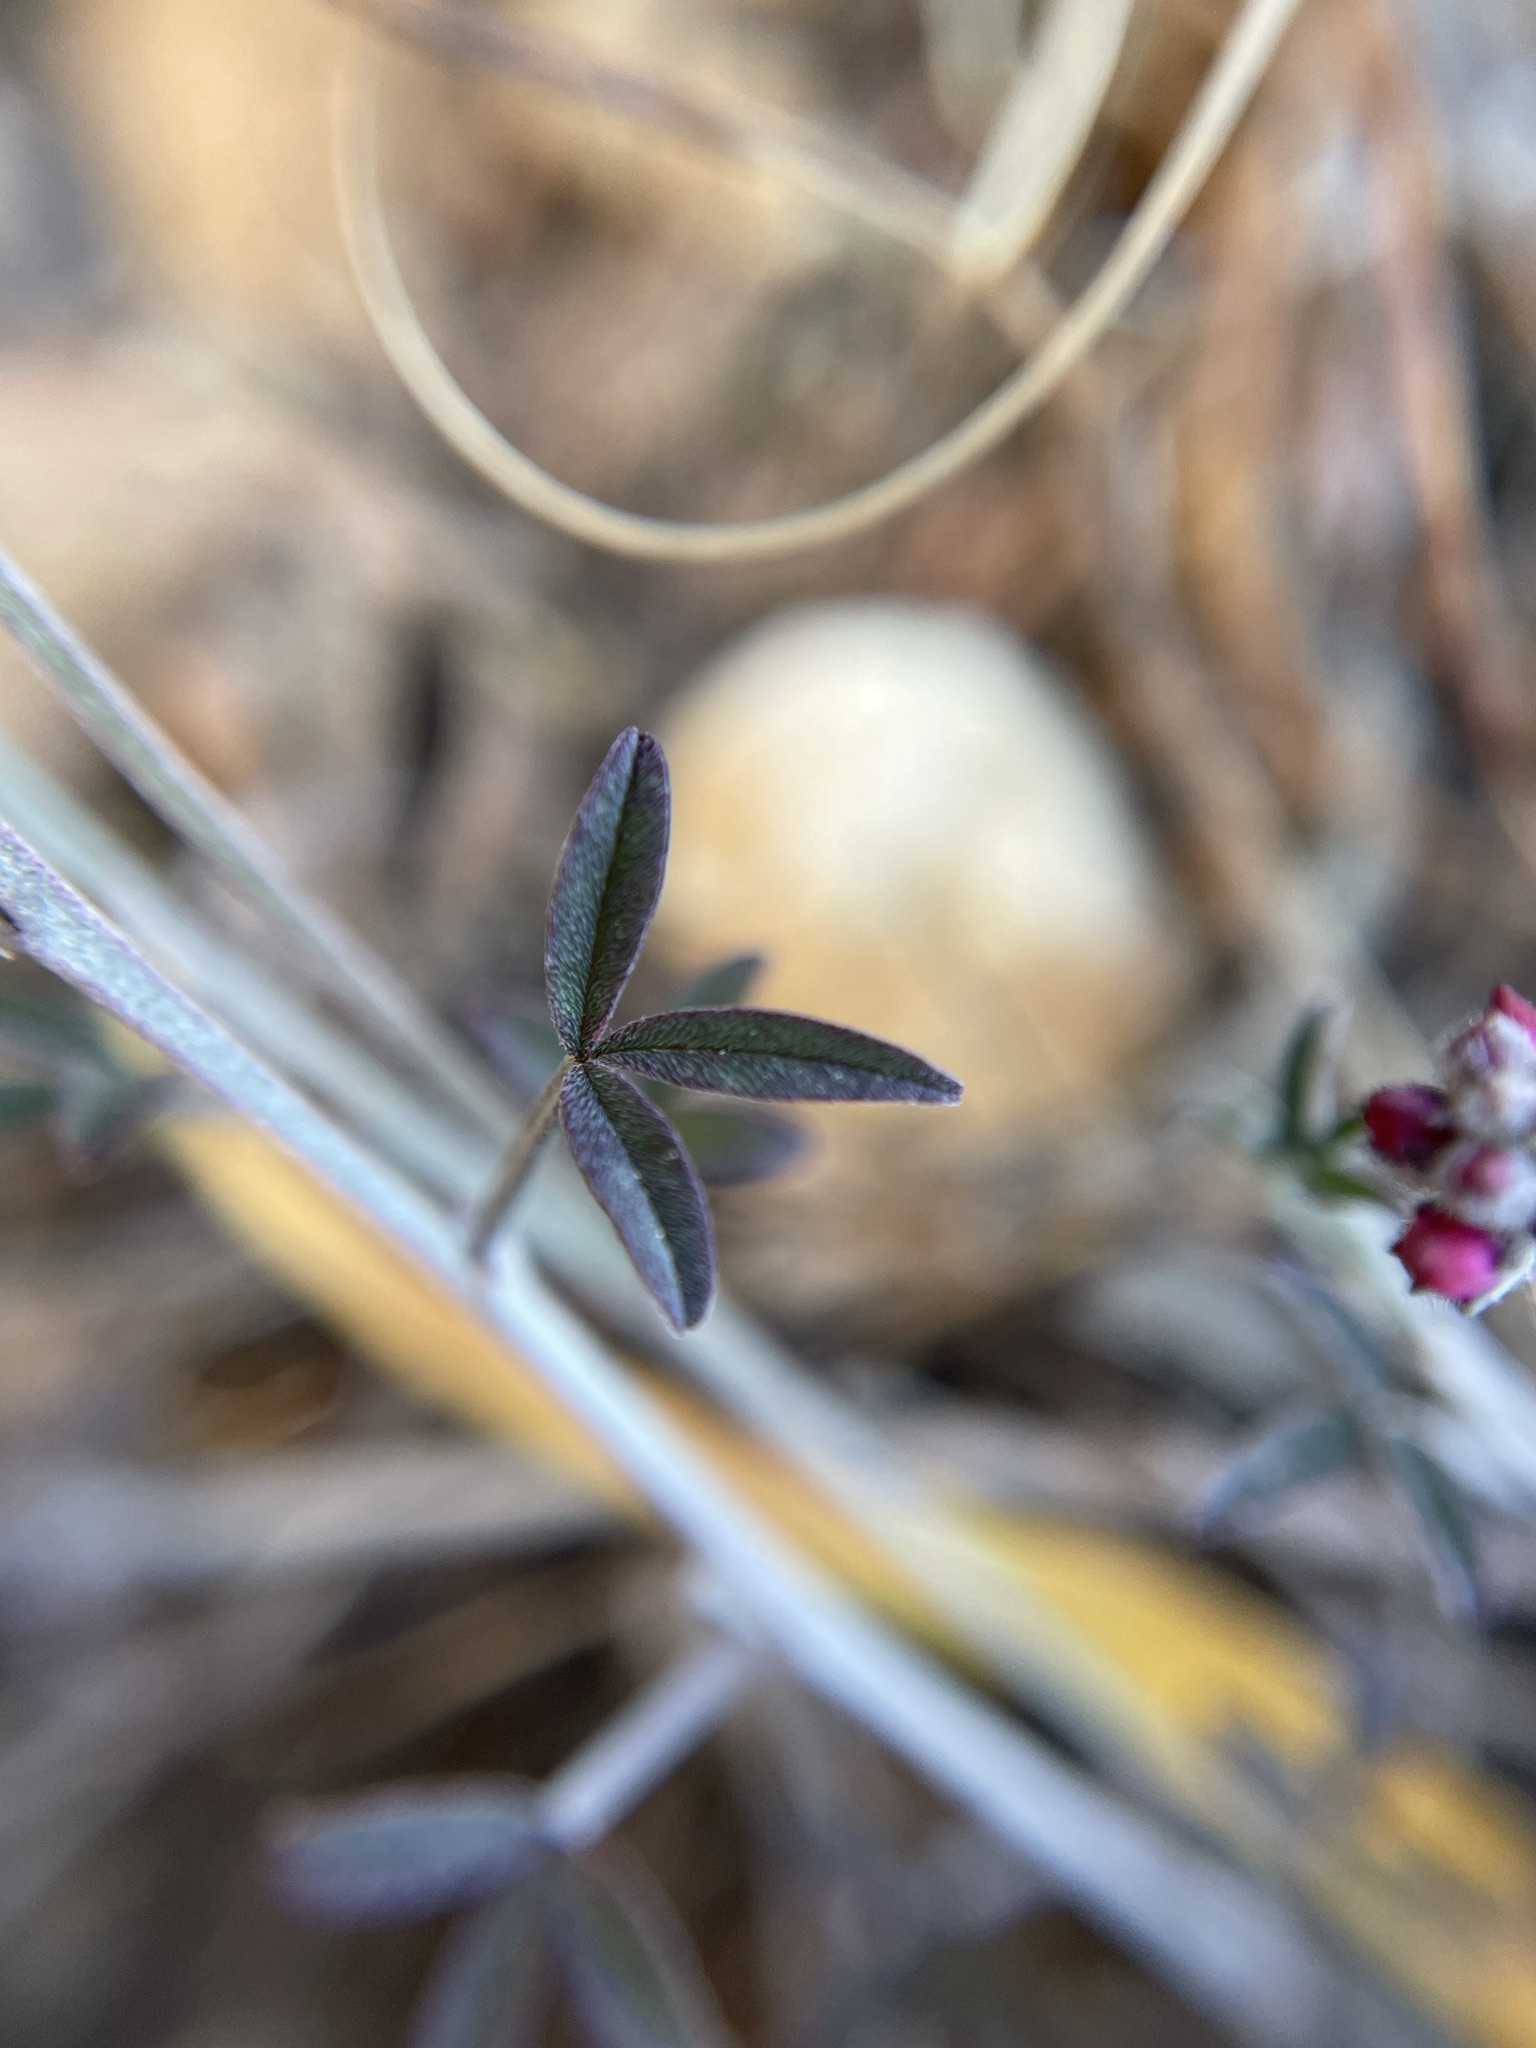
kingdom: Plantae
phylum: Tracheophyta
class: Magnoliopsida
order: Fabales
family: Fabaceae
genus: Indigofera
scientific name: Indigofera meyeriana
